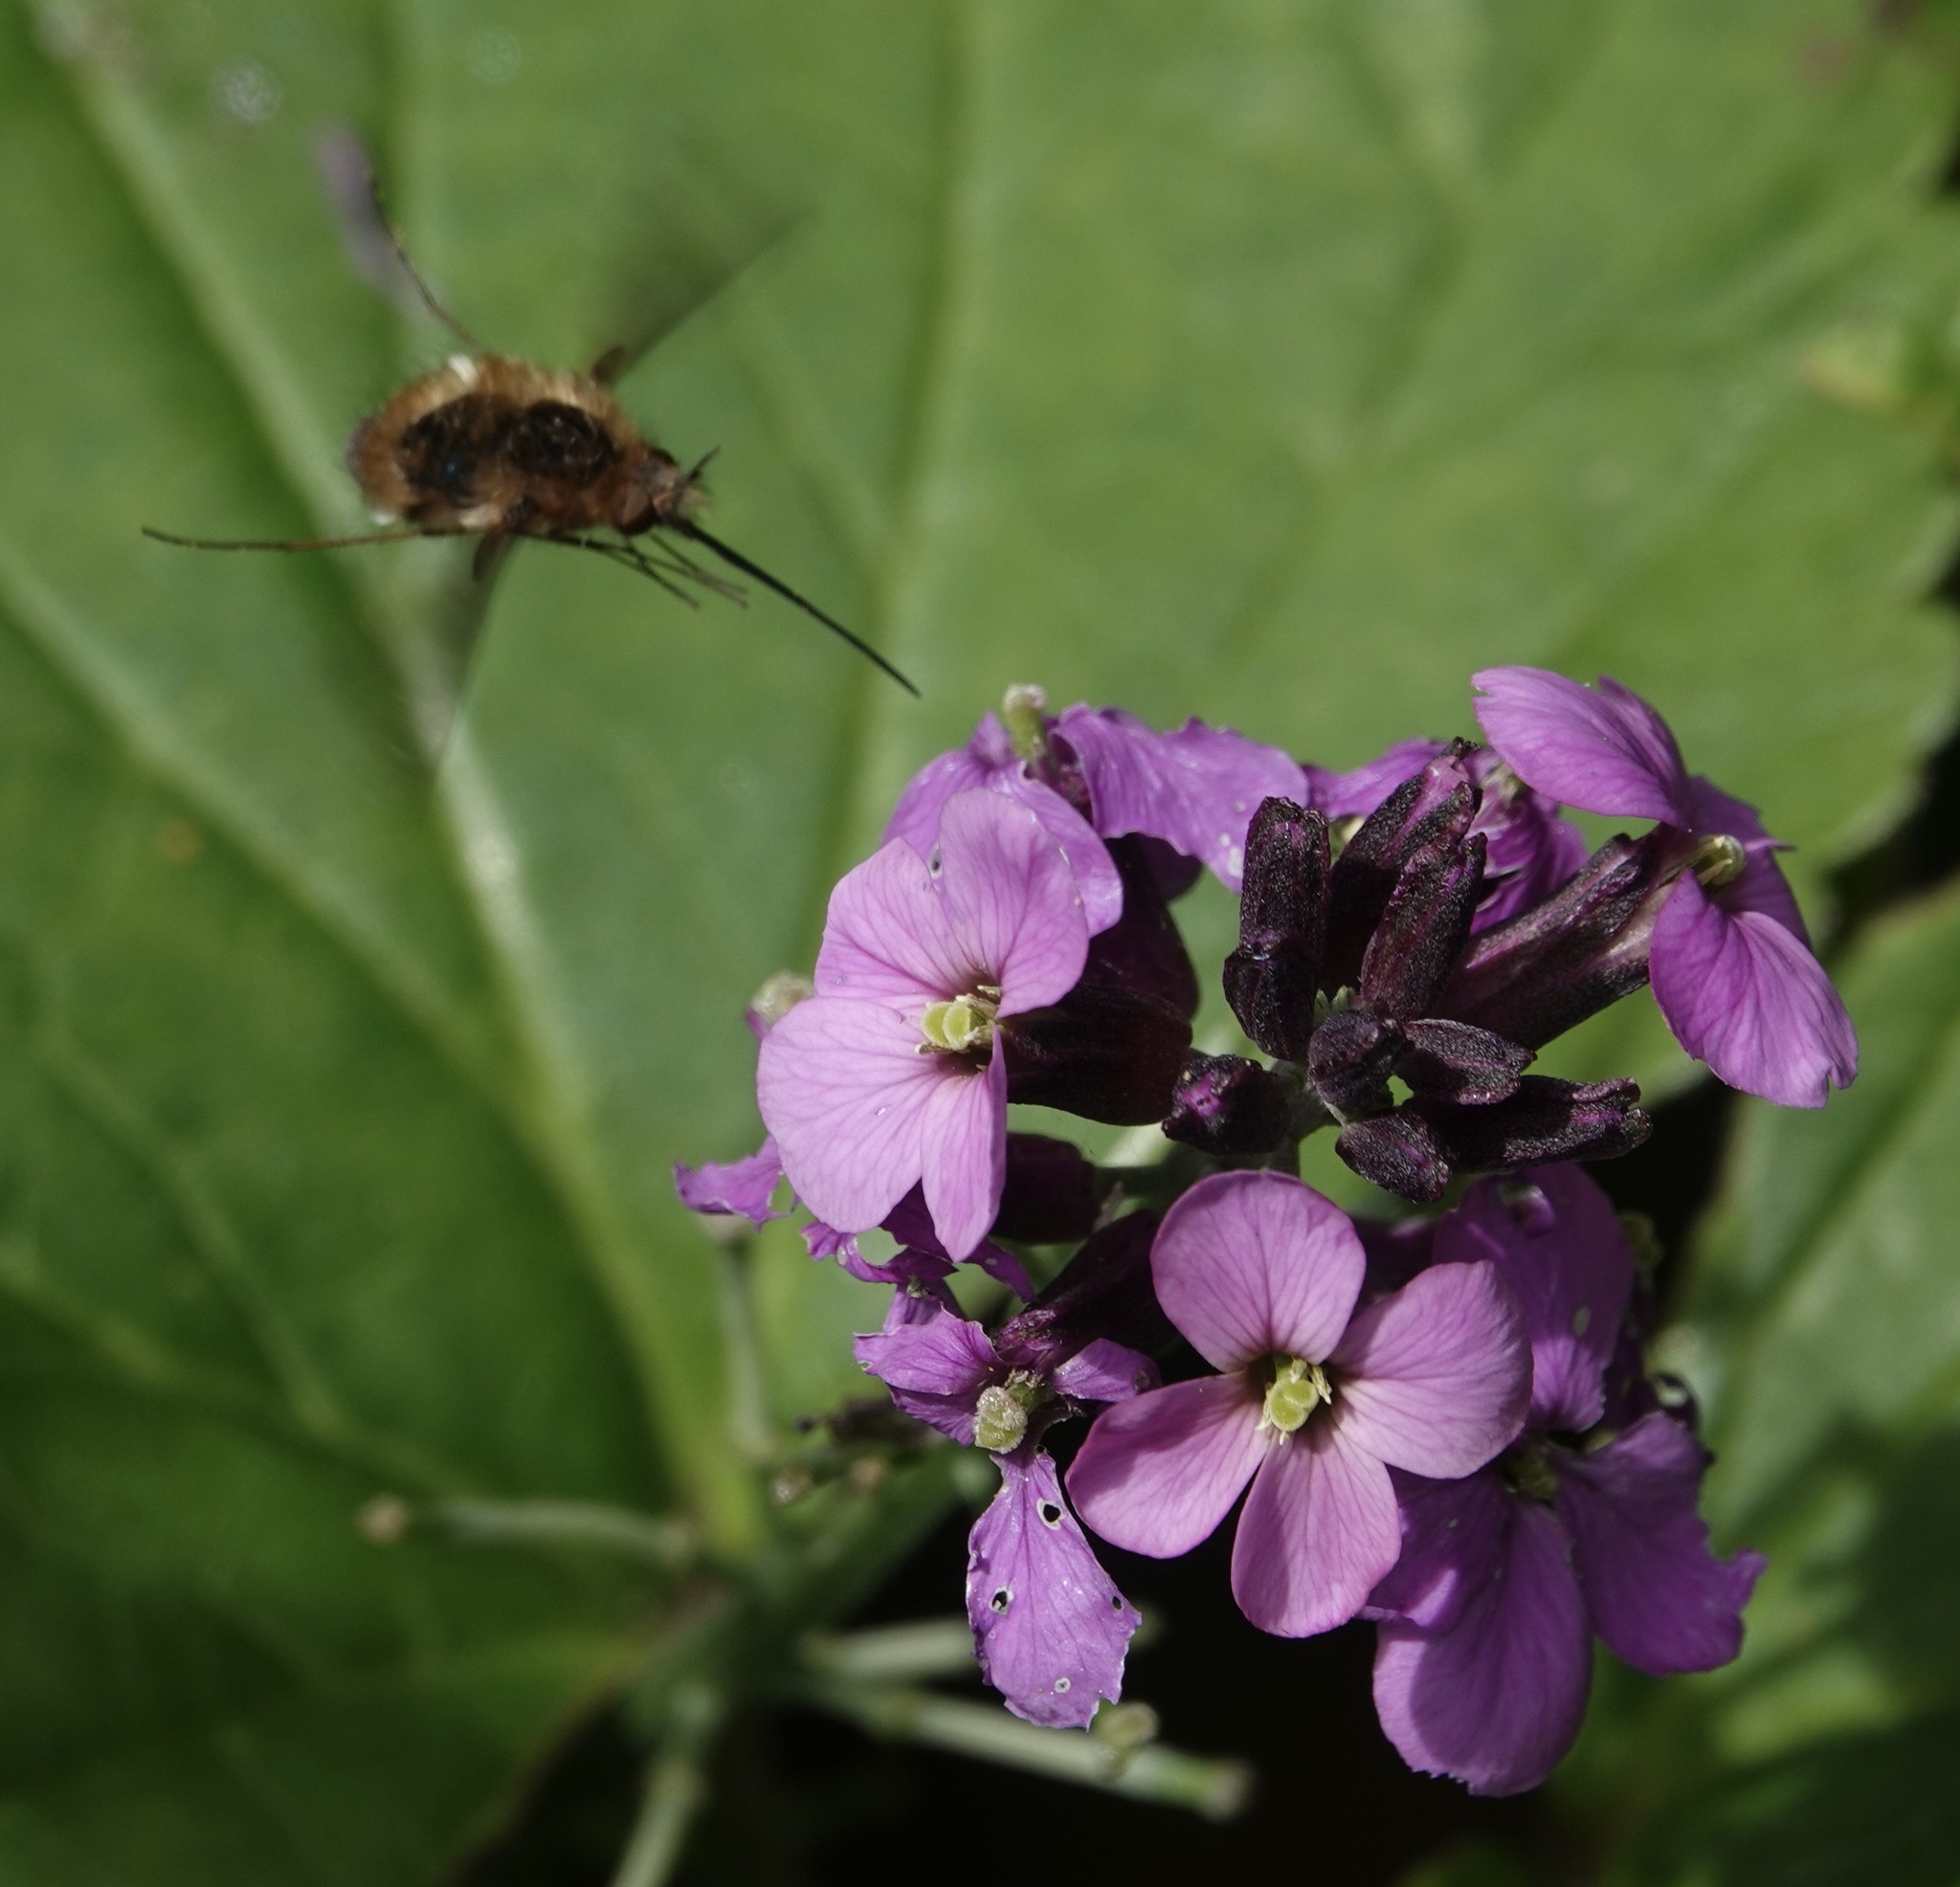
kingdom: Animalia
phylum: Arthropoda
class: Insecta
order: Diptera
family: Bombyliidae
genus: Bombylius
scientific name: Bombylius major
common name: Bee fly
